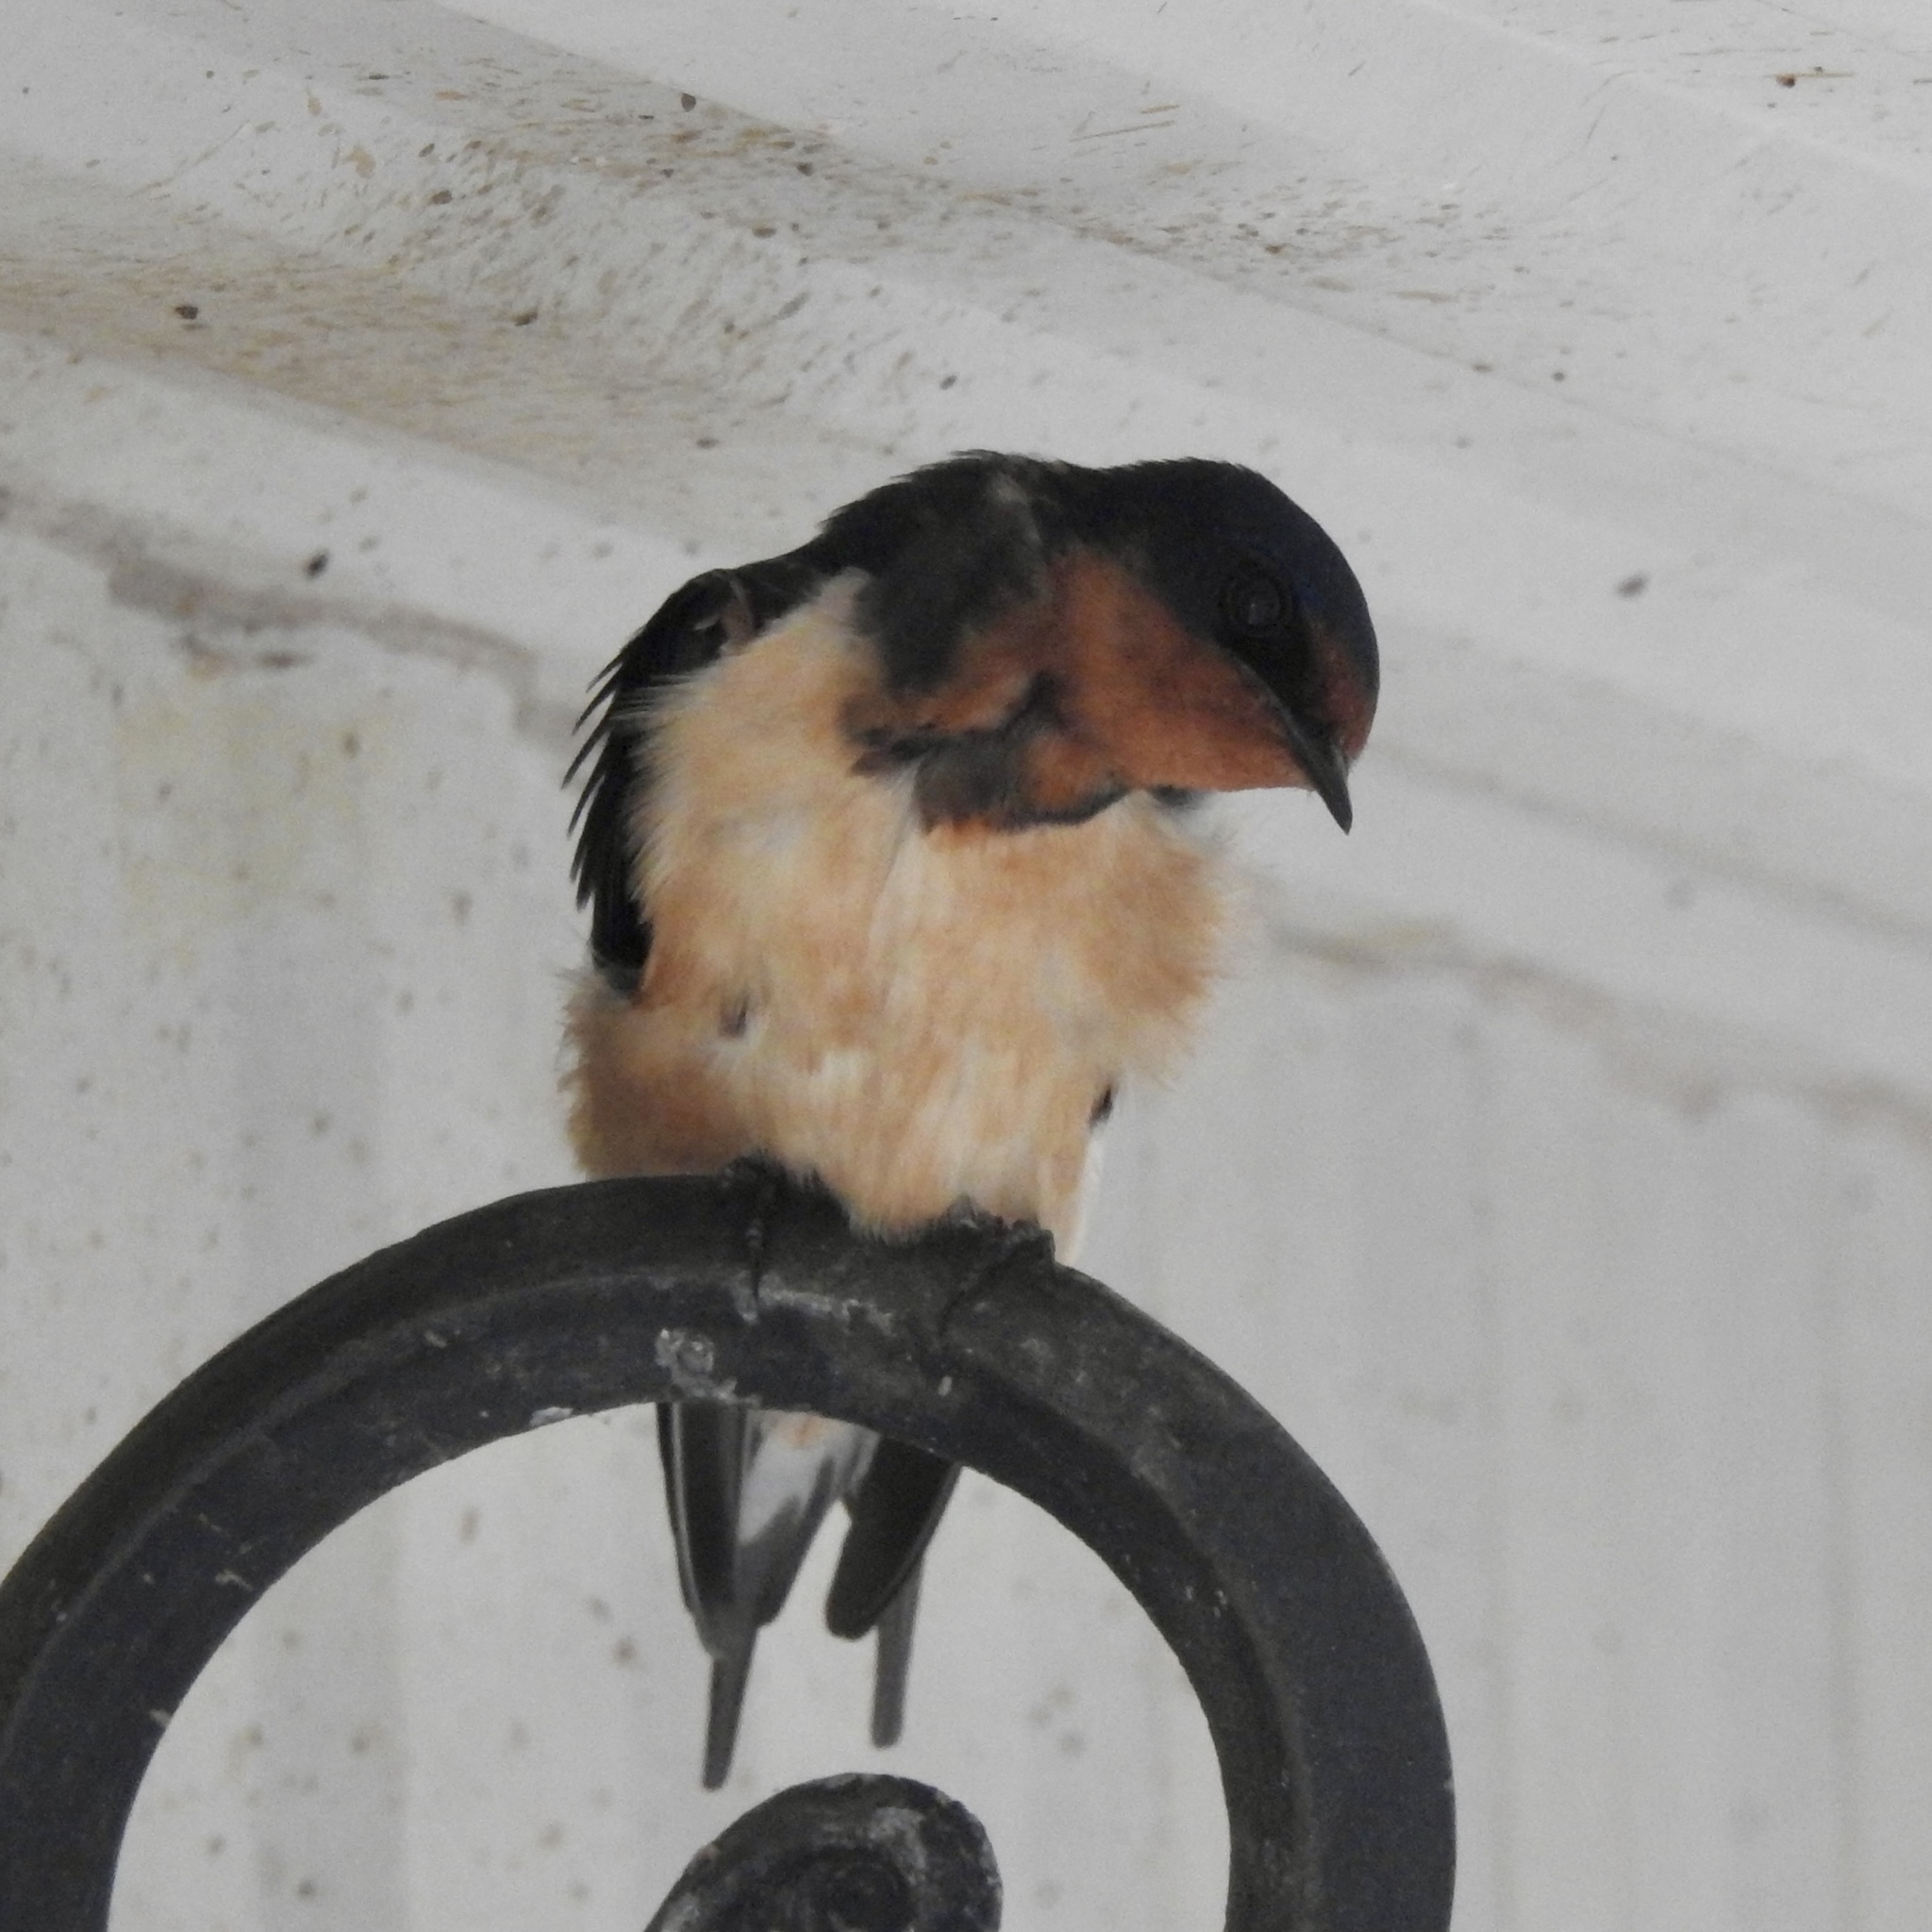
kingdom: Animalia
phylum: Chordata
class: Aves
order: Passeriformes
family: Hirundinidae
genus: Hirundo
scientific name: Hirundo rustica
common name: Barn swallow
